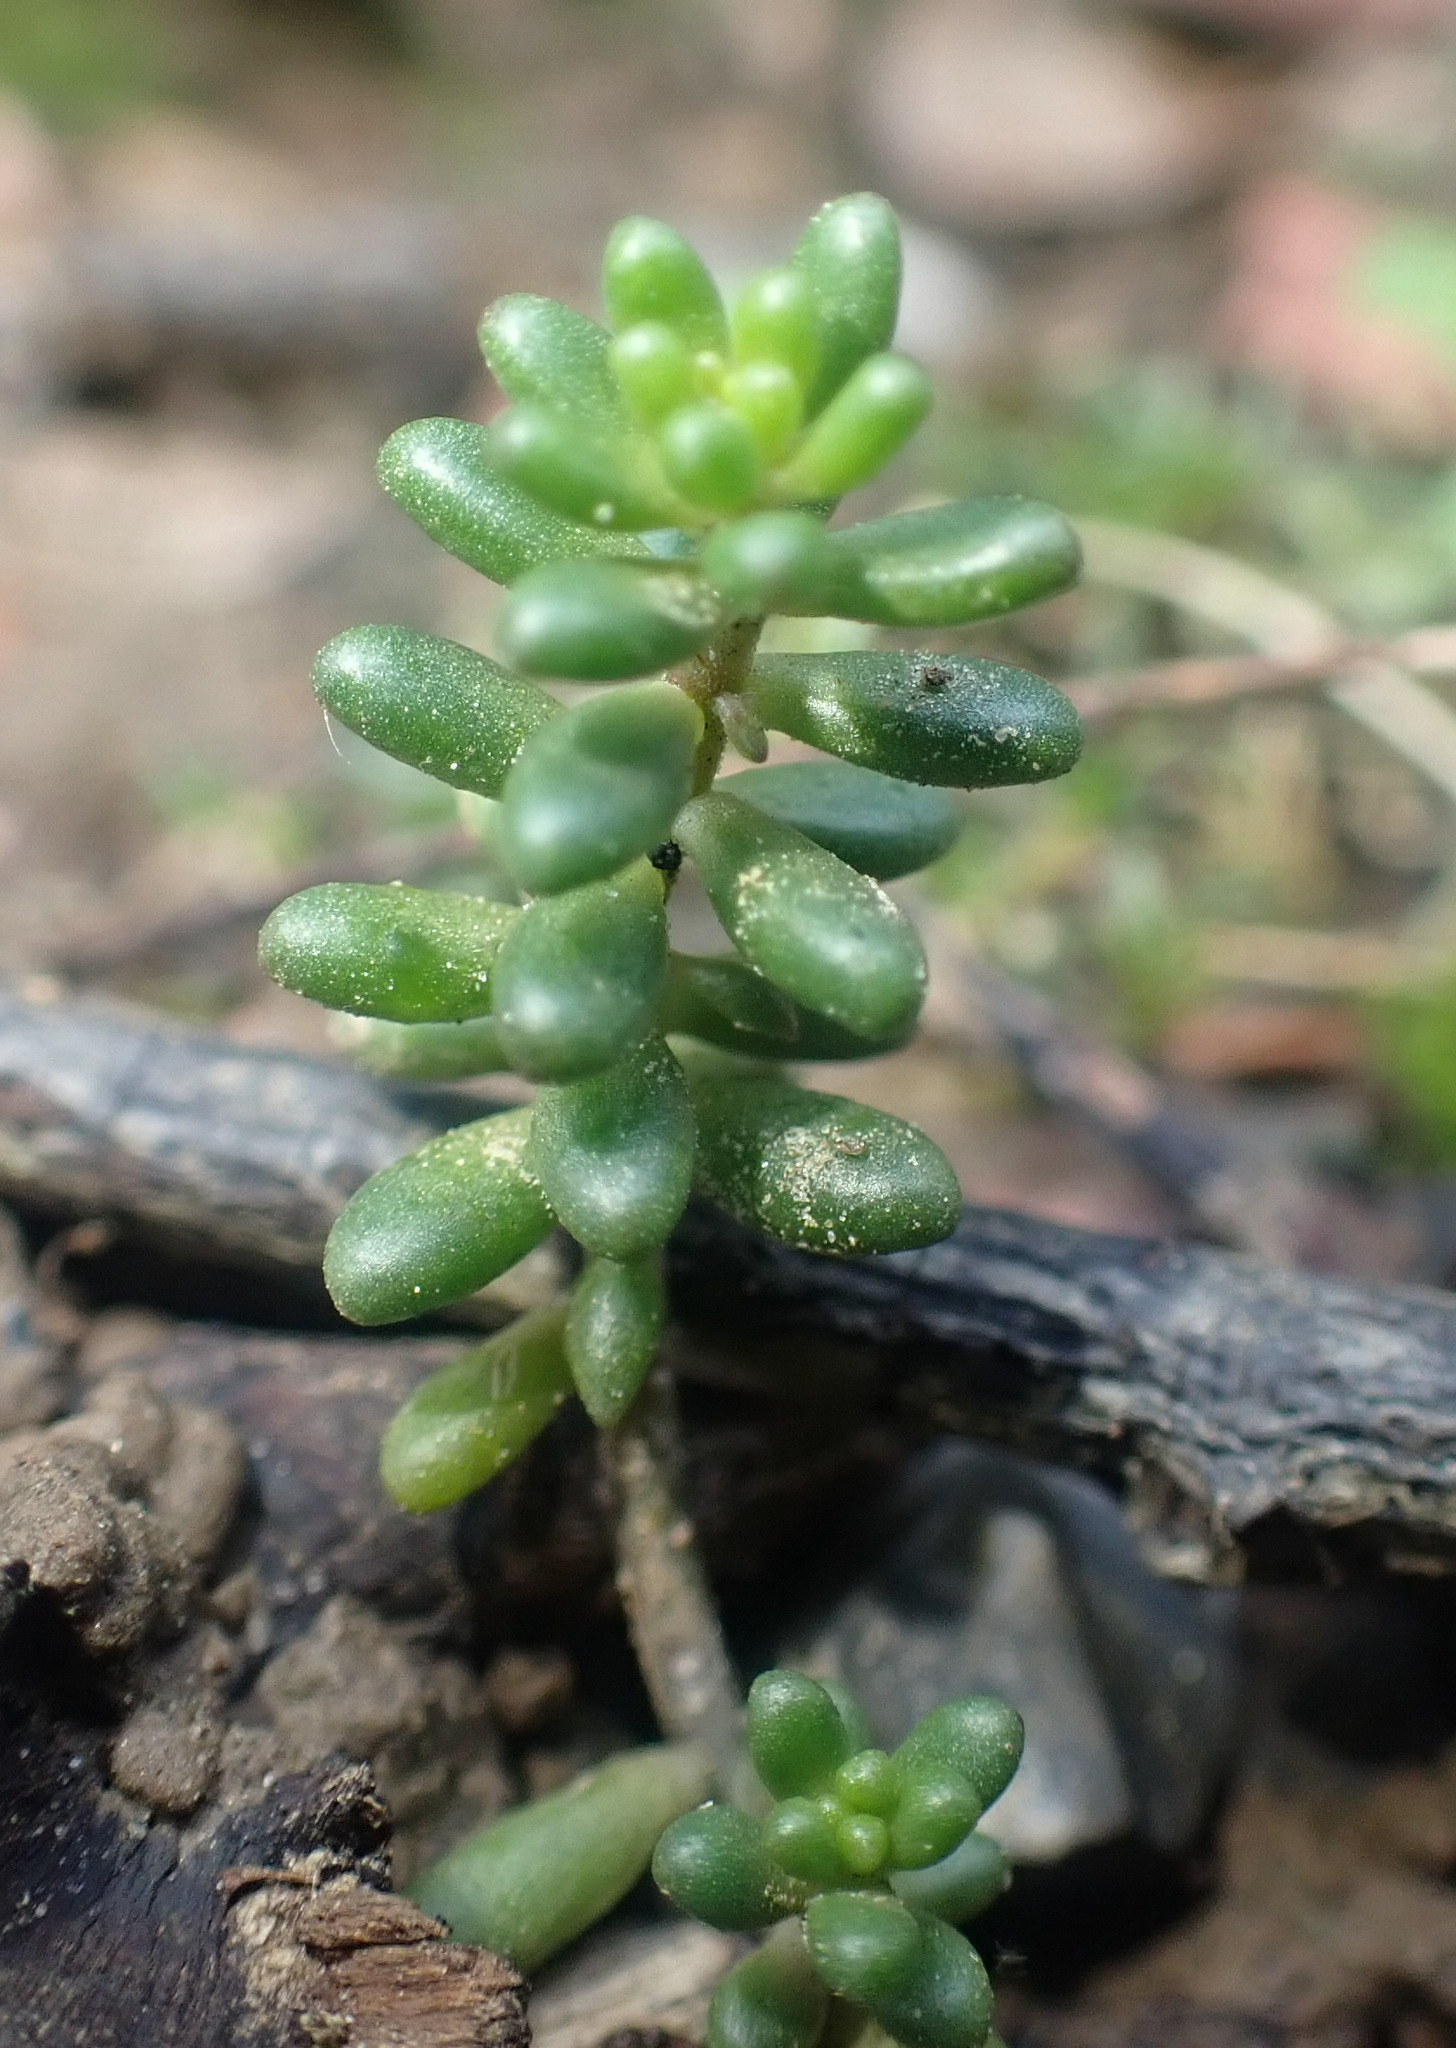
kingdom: Plantae
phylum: Tracheophyta
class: Magnoliopsida
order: Saxifragales
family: Crassulaceae
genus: Sedum
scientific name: Sedum album
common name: White stonecrop
